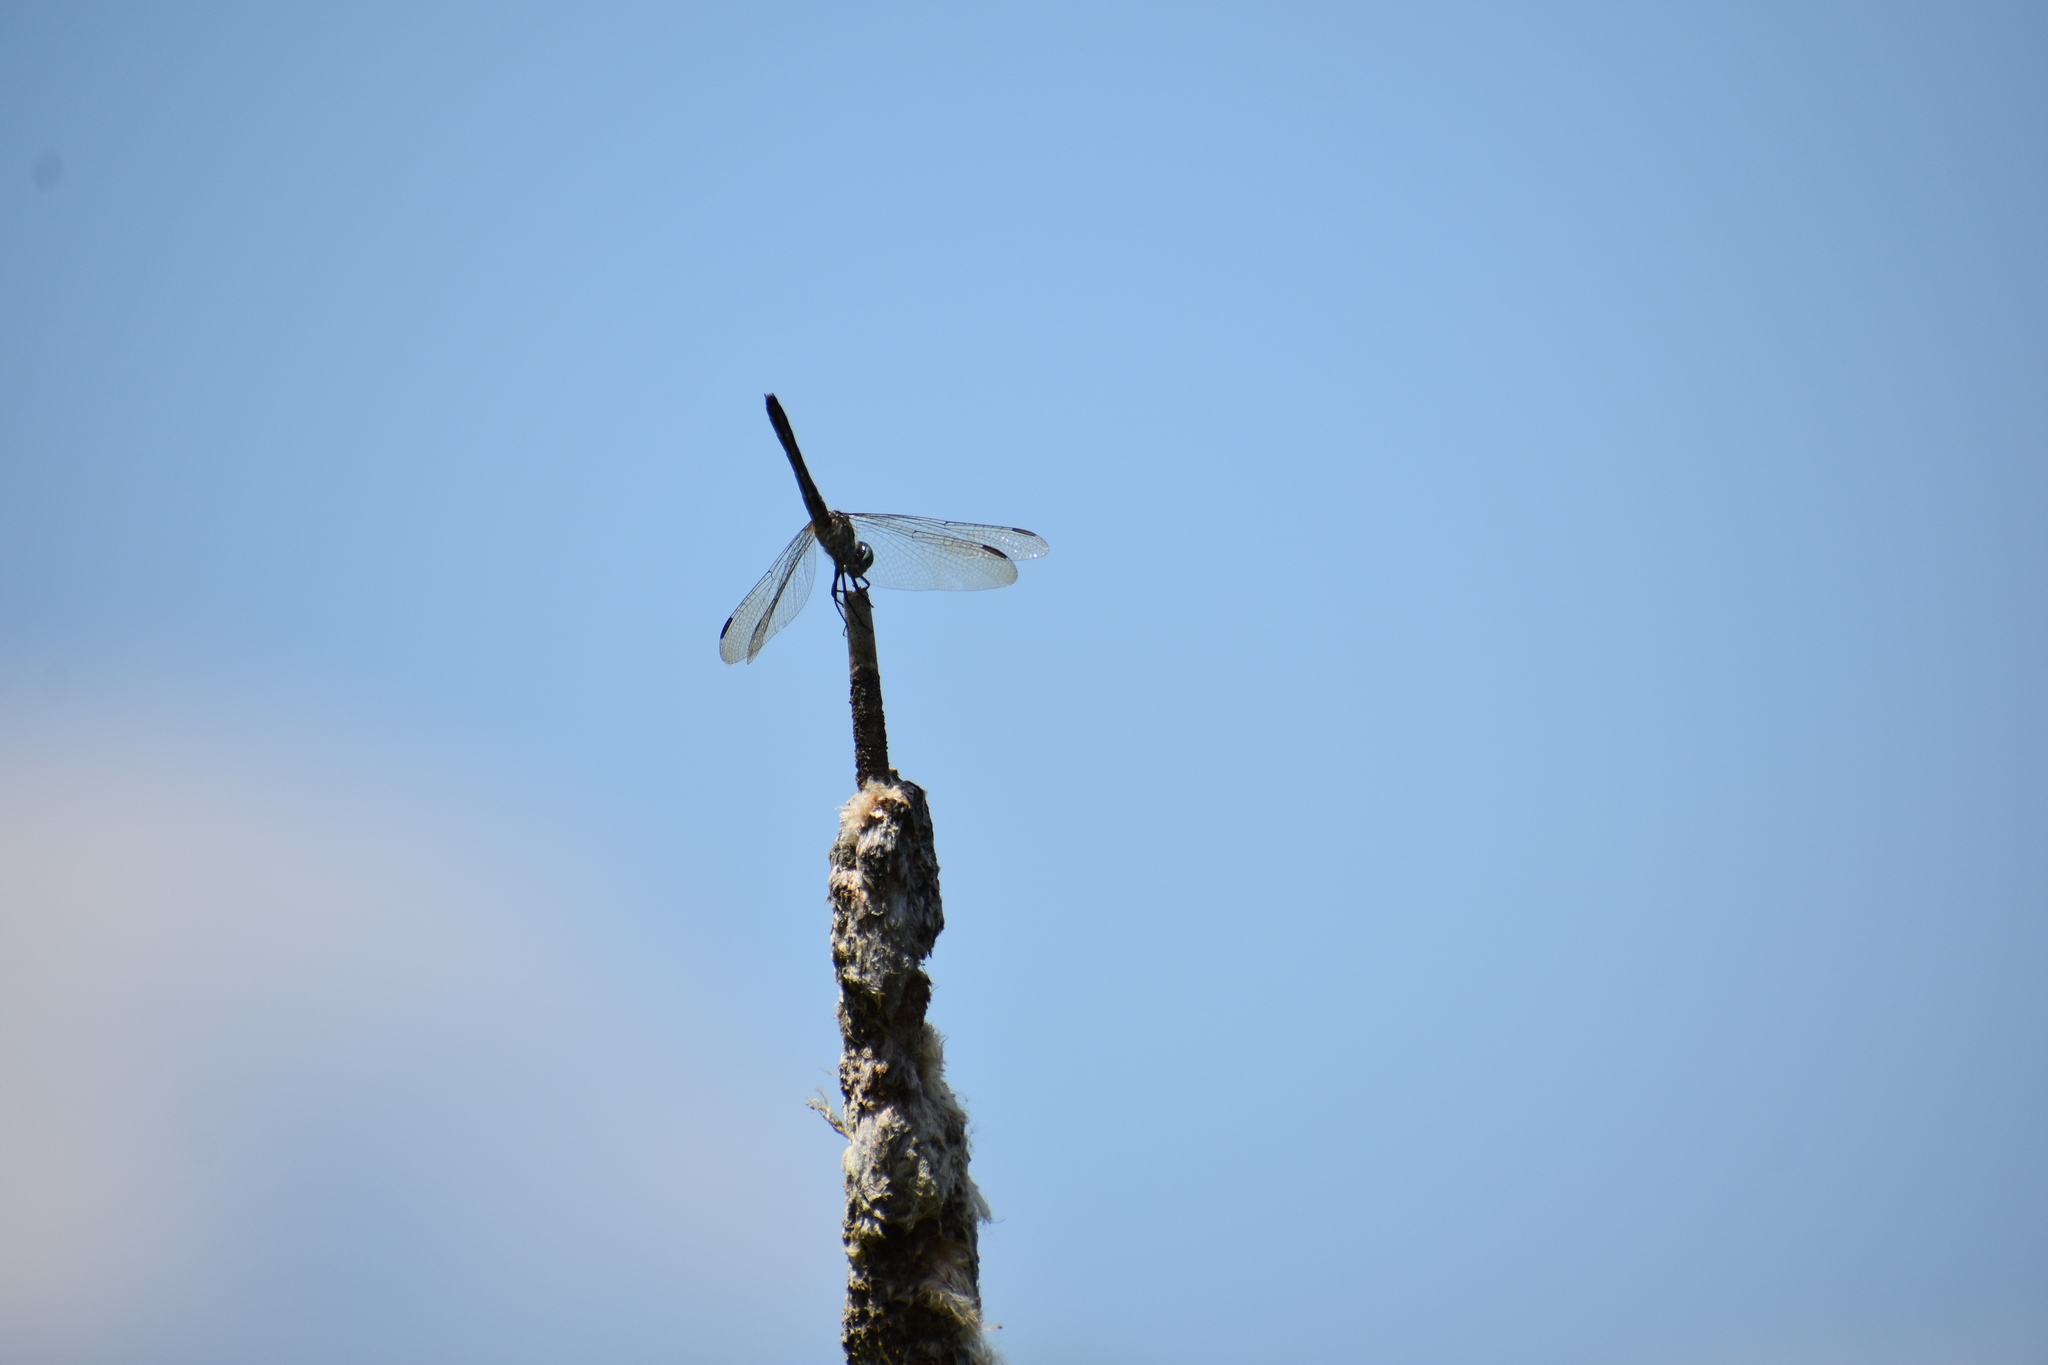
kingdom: Animalia
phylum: Arthropoda
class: Insecta
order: Odonata
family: Libellulidae
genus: Pachydiplax
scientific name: Pachydiplax longipennis
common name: Blue dasher
